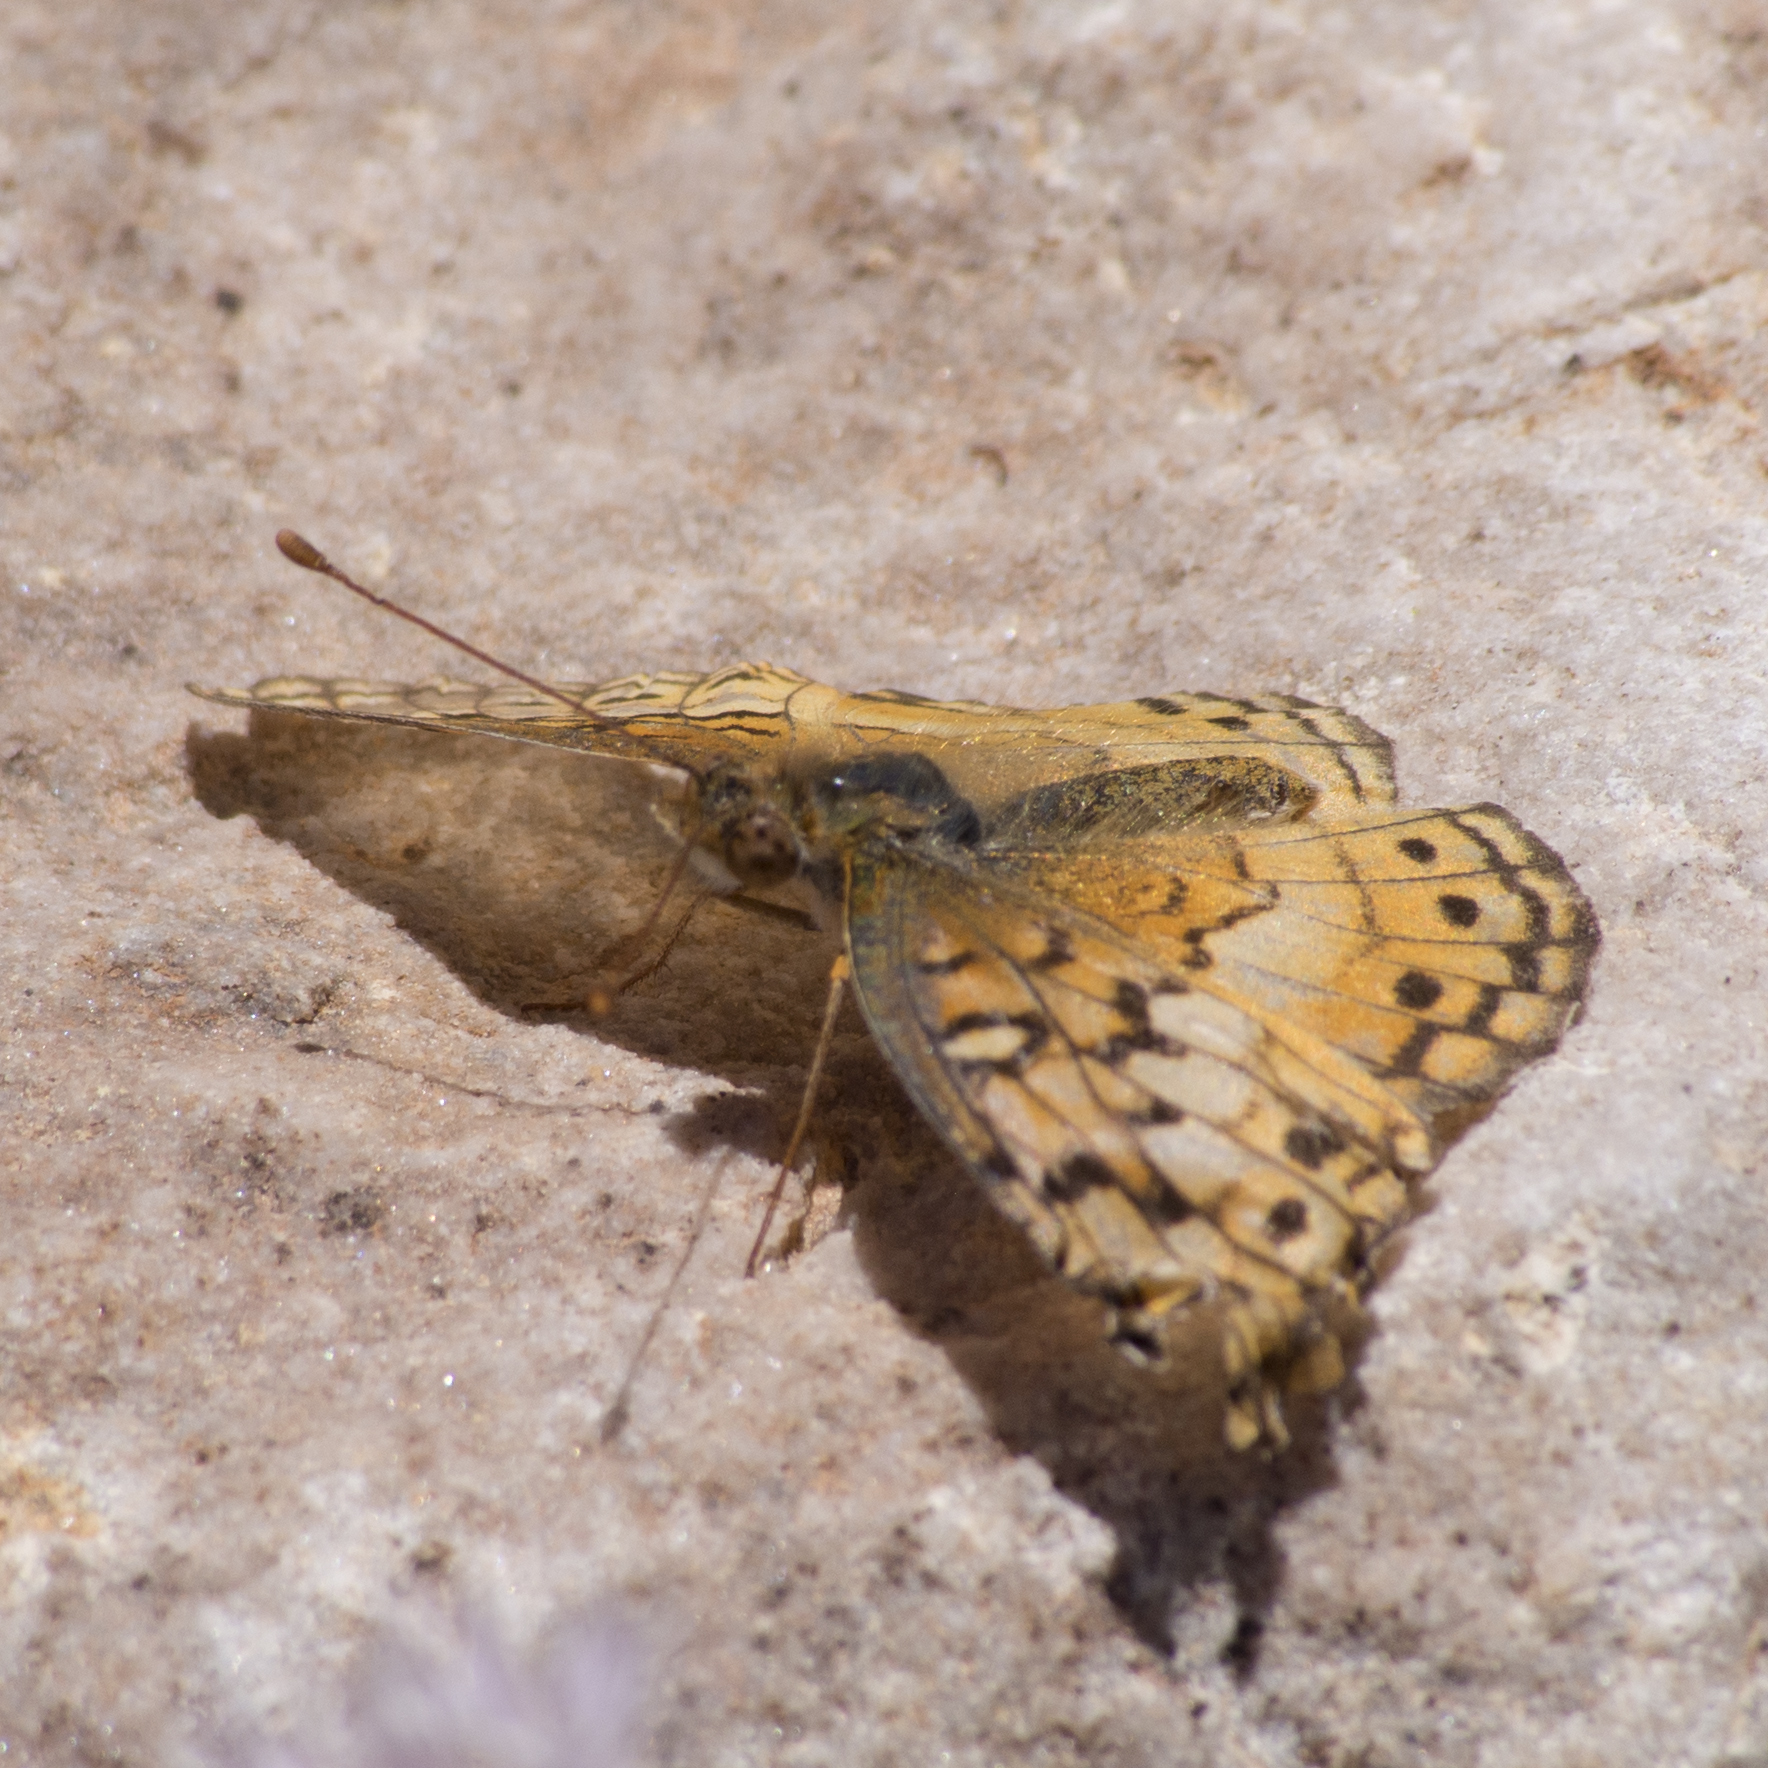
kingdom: Animalia
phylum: Arthropoda
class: Insecta
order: Lepidoptera
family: Nymphalidae
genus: Euptoieta
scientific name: Euptoieta claudia
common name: Variegated fritillary
